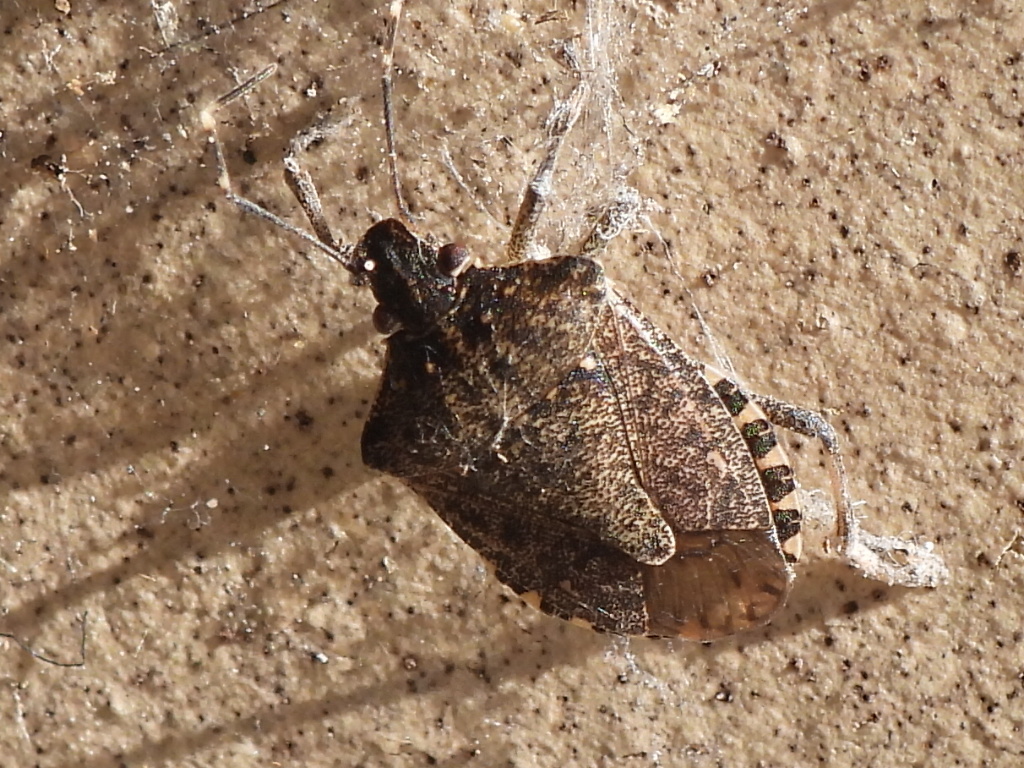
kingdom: Animalia
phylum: Arthropoda
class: Insecta
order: Hemiptera
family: Pentatomidae
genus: Halyomorpha
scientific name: Halyomorpha halys
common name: Brown marmorated stink bug
